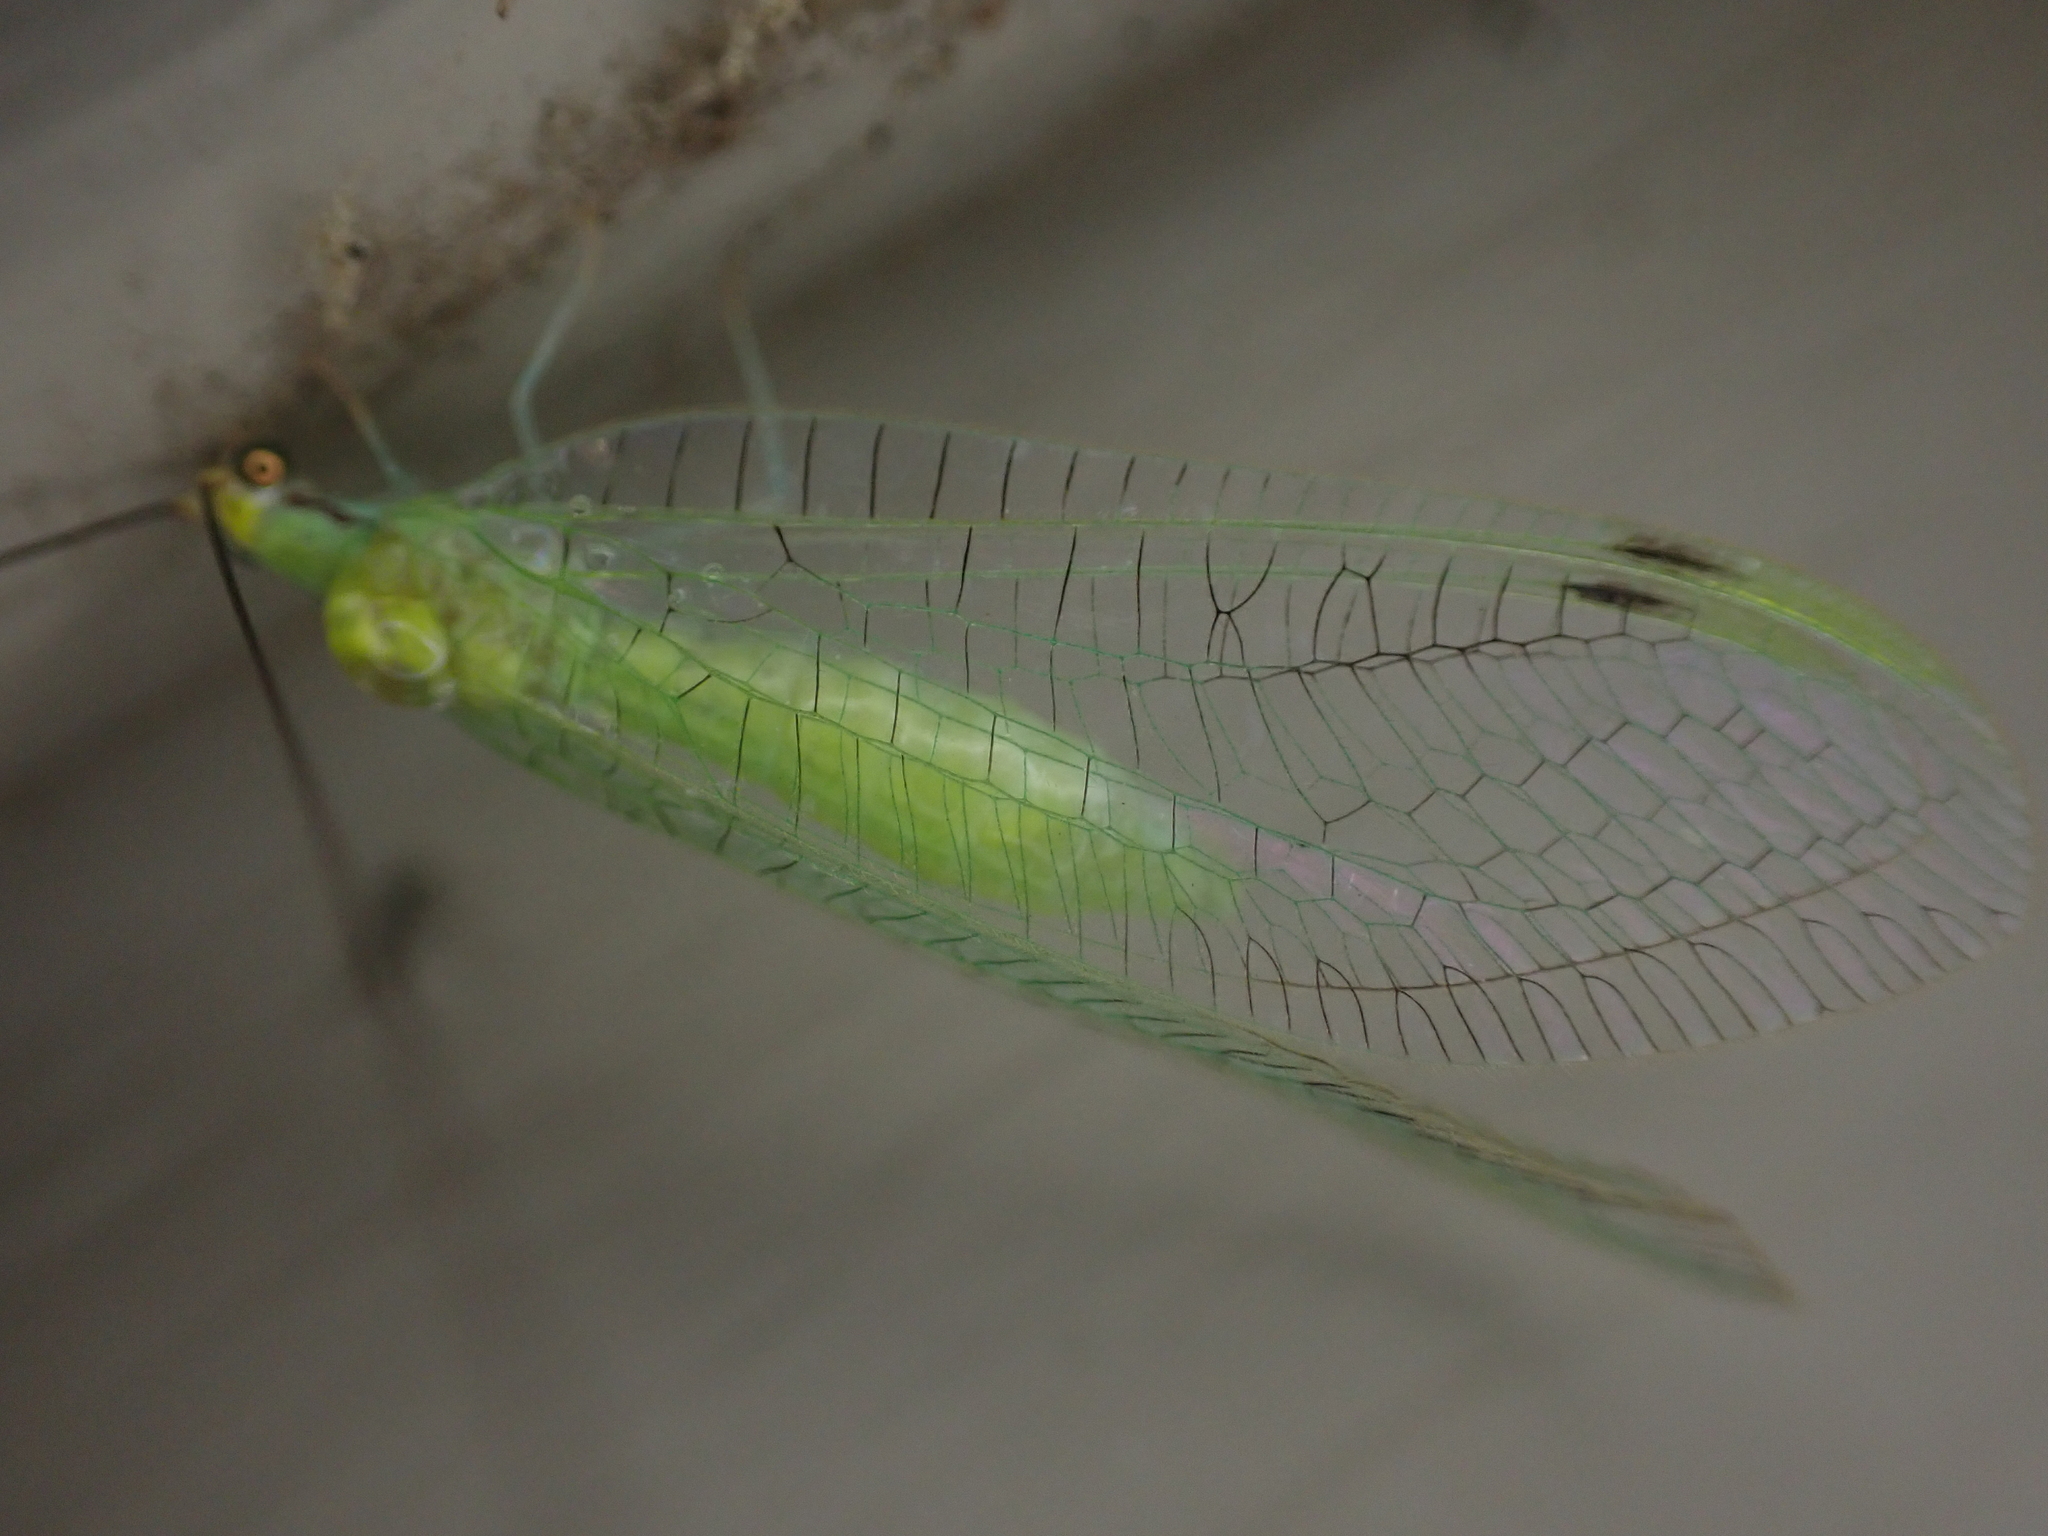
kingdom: Animalia
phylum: Arthropoda
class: Insecta
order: Neuroptera
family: Chrysopidae
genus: Leucochrysa
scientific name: Leucochrysa pavida
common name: Lichen-carrying green lacewing
